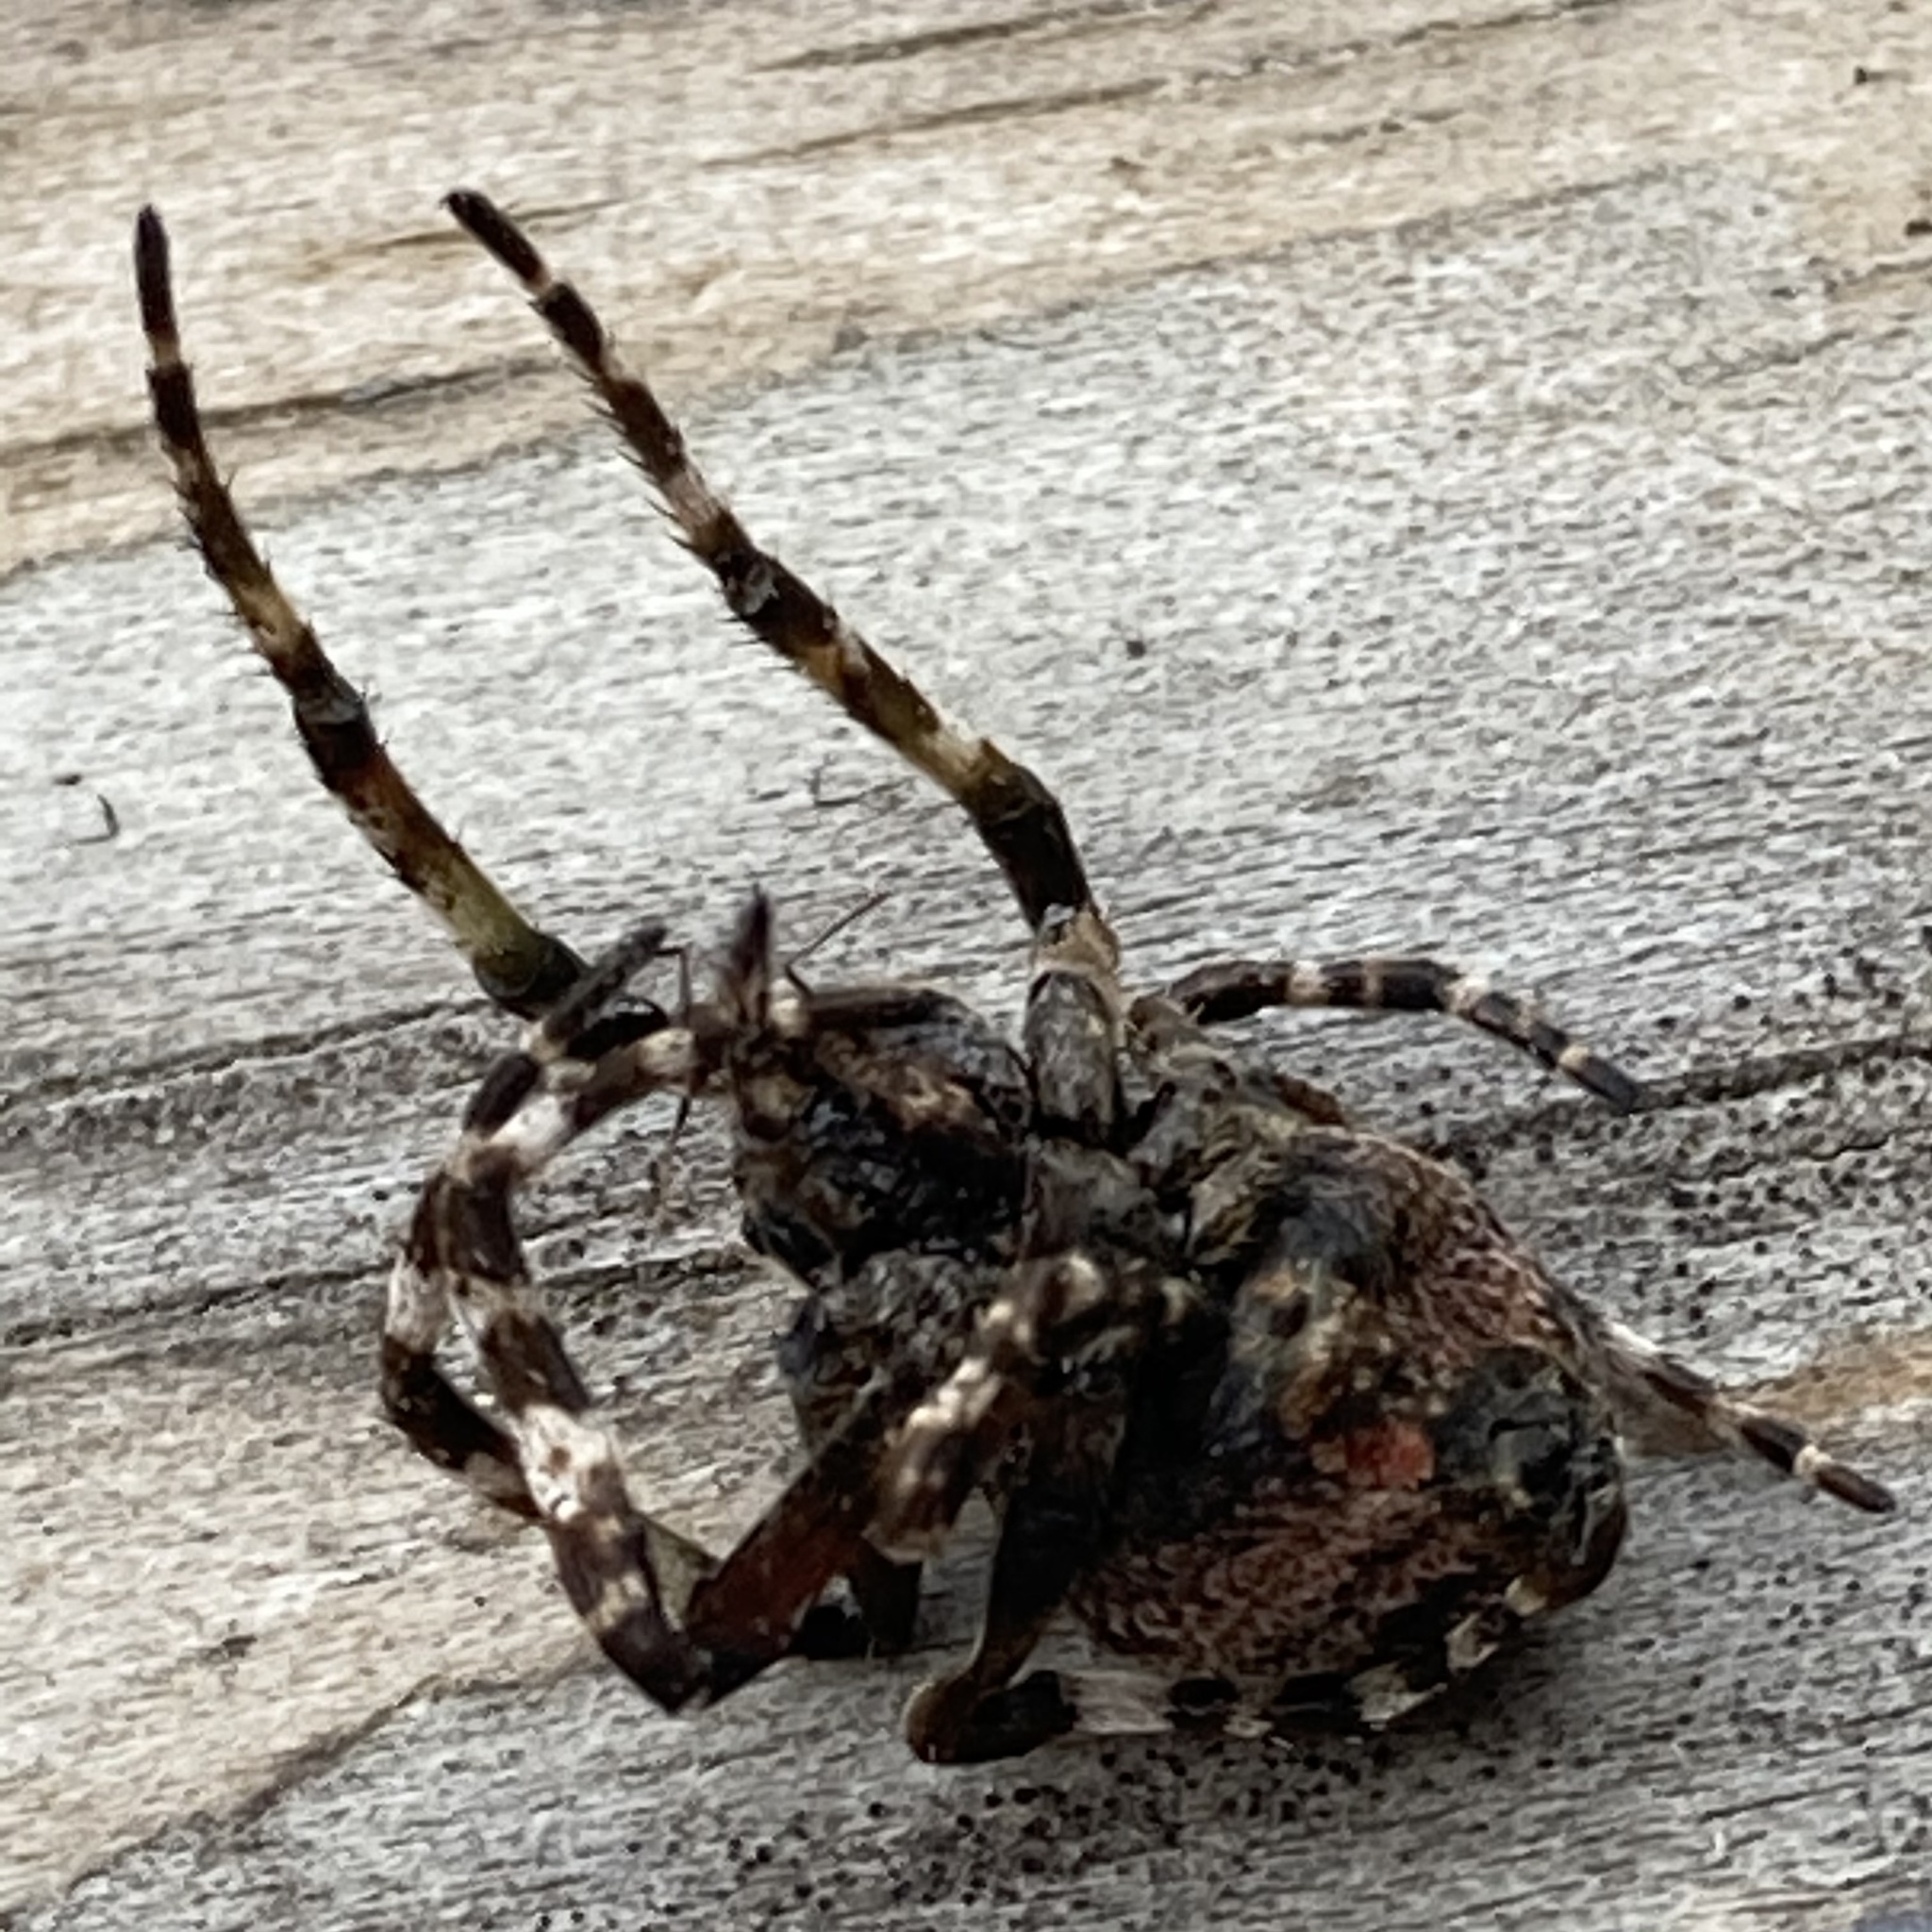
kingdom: Animalia
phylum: Arthropoda
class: Arachnida
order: Araneae
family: Araneidae
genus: Courtaraneus
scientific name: Courtaraneus orientalis
